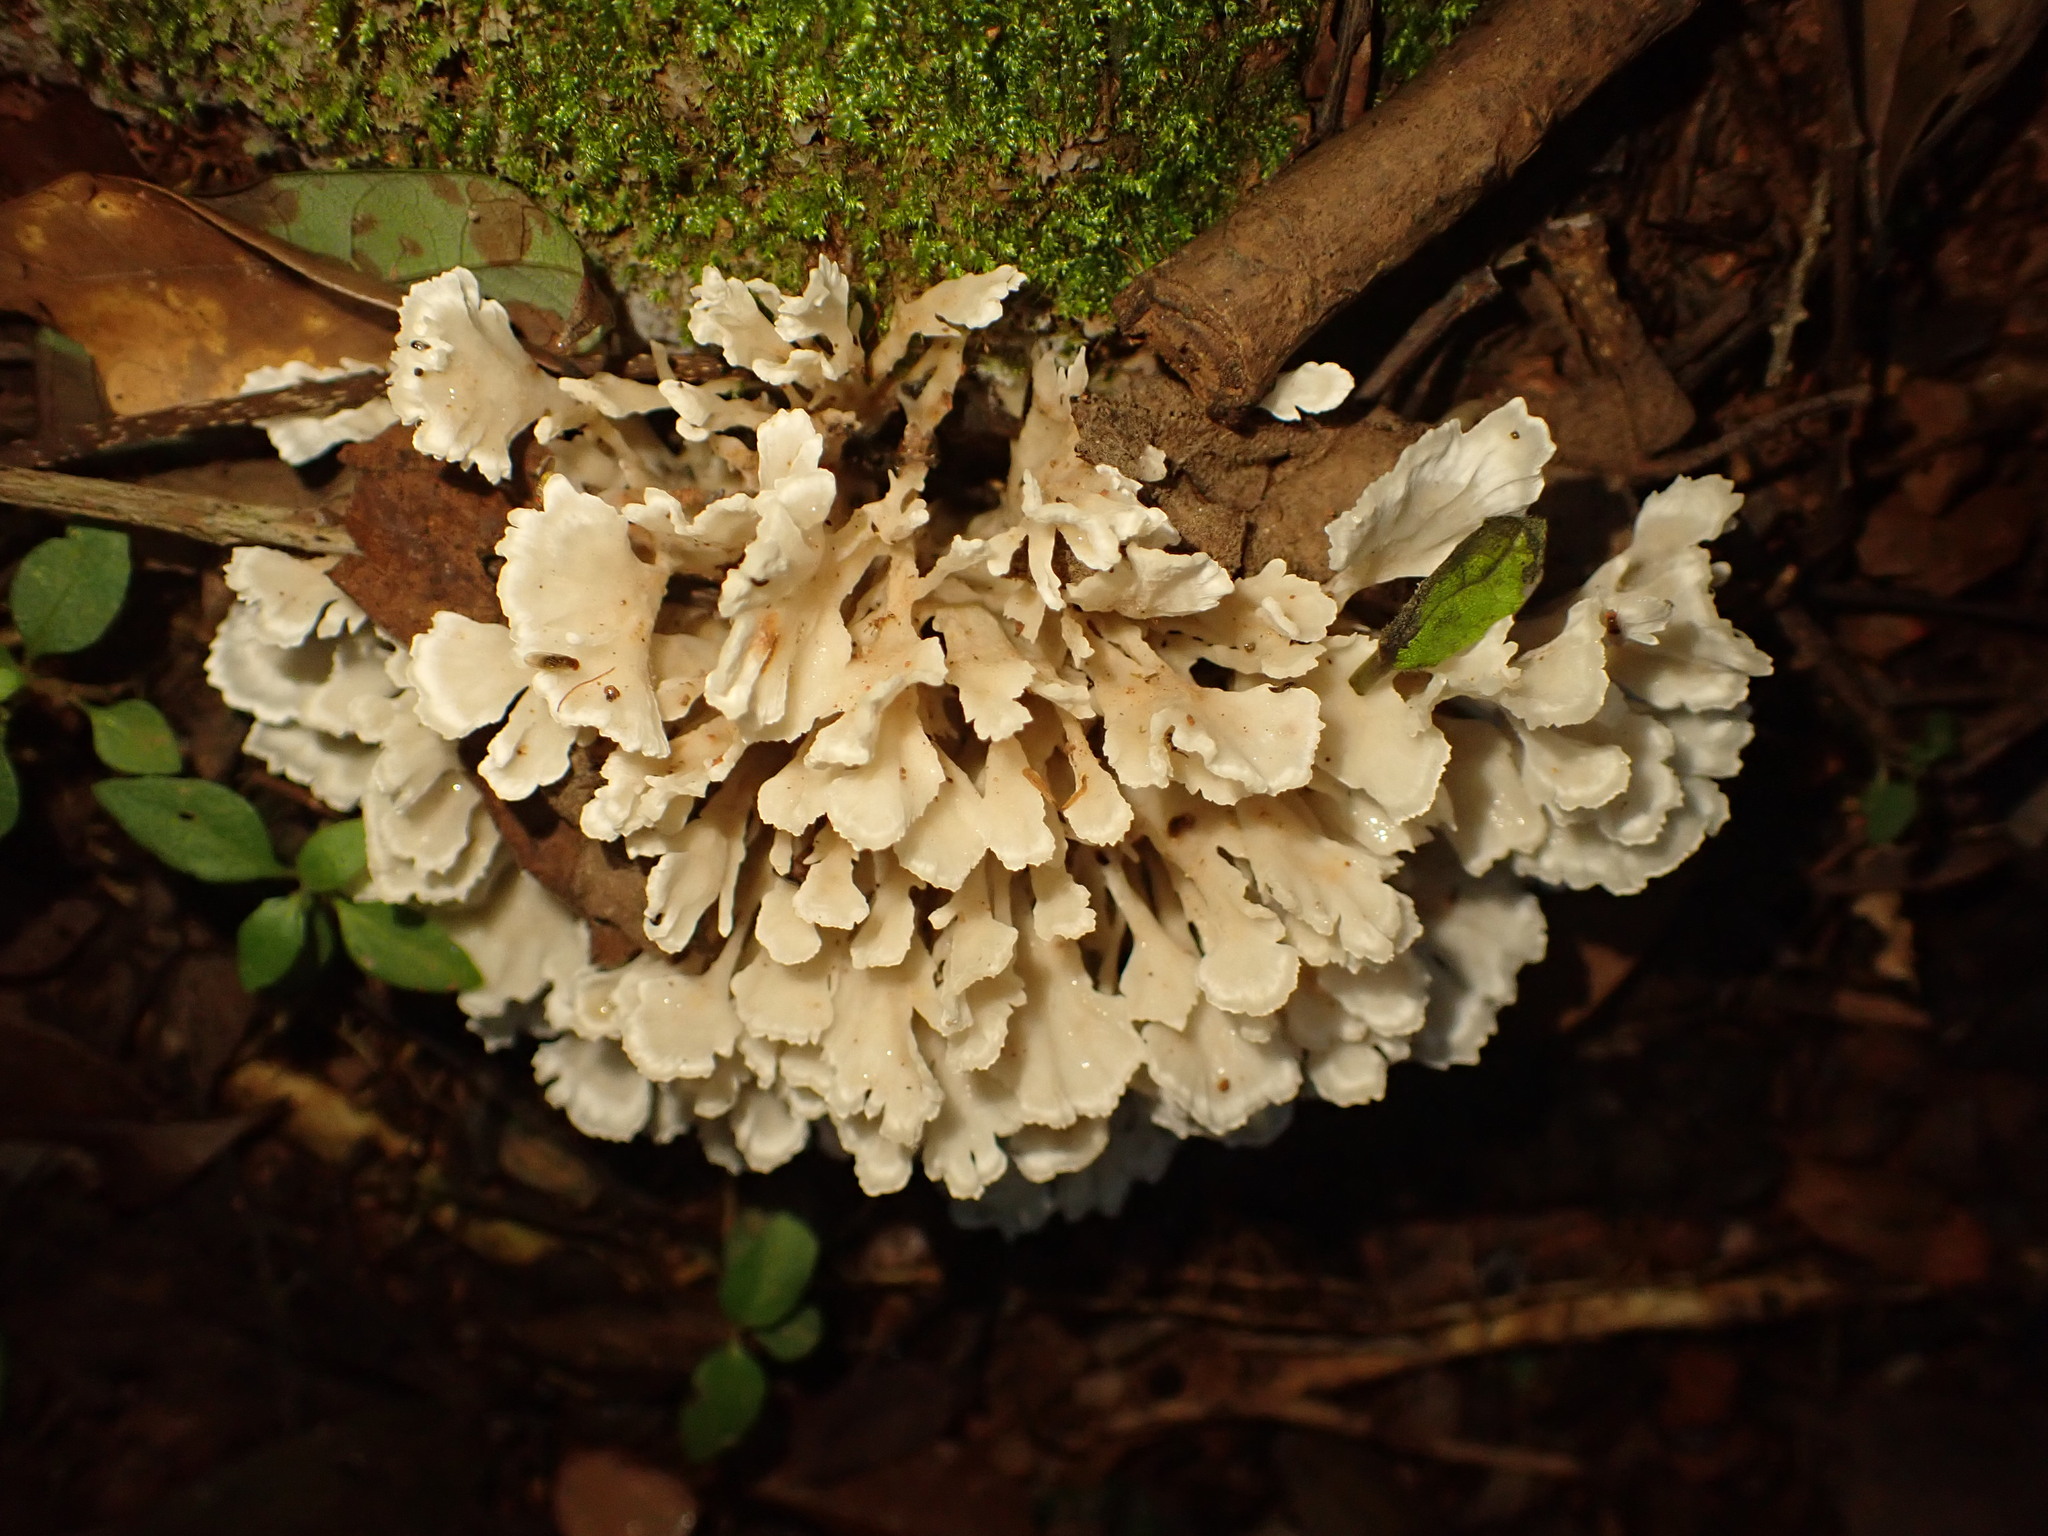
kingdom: Fungi
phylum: Basidiomycota
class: Agaricomycetes
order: Polyporales
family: Irpicaceae
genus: Irpex
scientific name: Irpex rosettiformis
